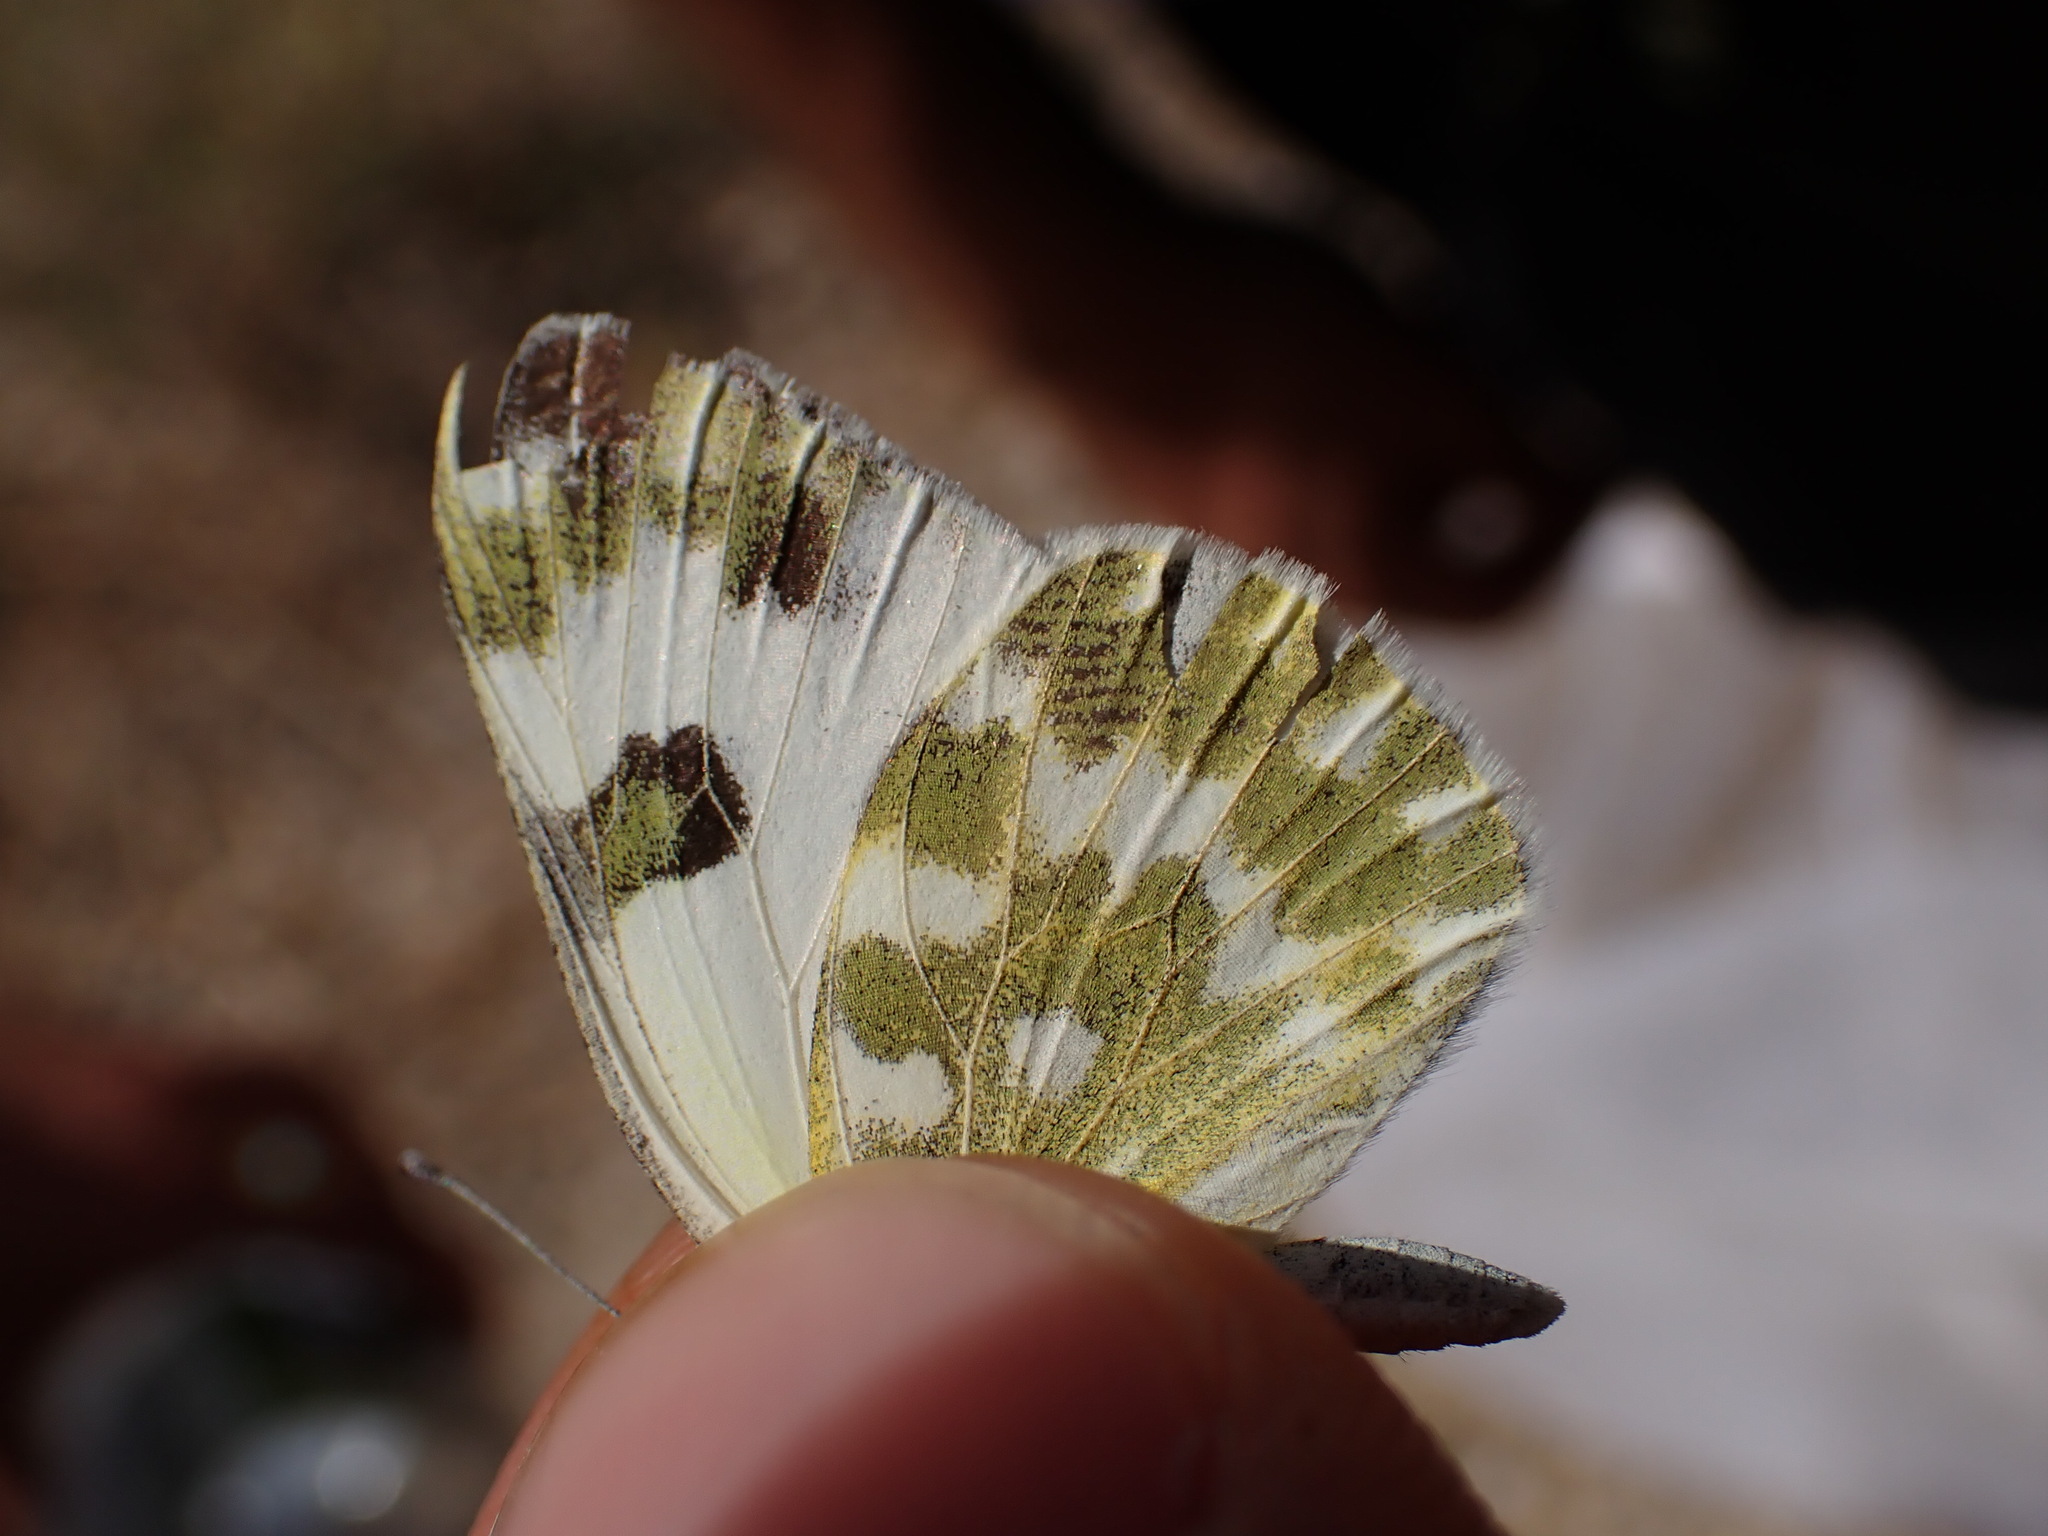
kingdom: Animalia
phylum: Arthropoda
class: Insecta
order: Lepidoptera
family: Pieridae
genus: Pontia
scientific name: Pontia daplidice
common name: Bath white
